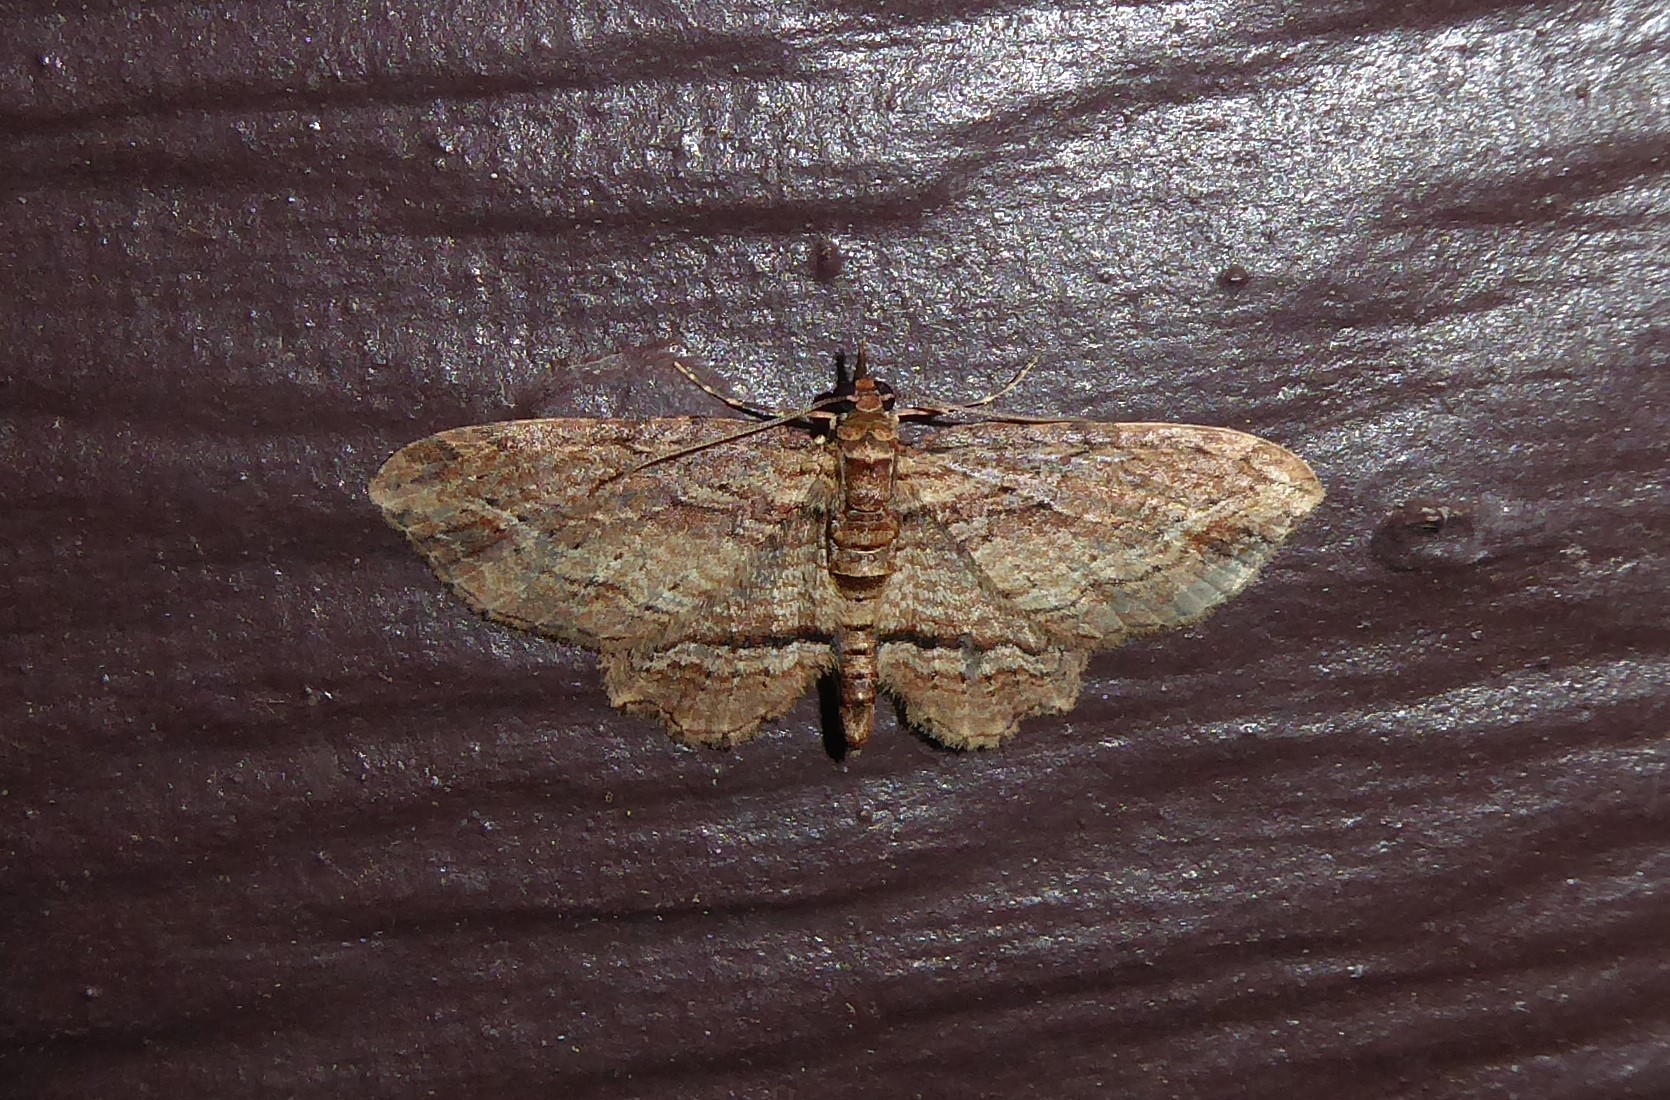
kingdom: Animalia
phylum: Arthropoda
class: Insecta
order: Lepidoptera
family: Geometridae
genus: Chloroclystis
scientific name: Chloroclystis filata
